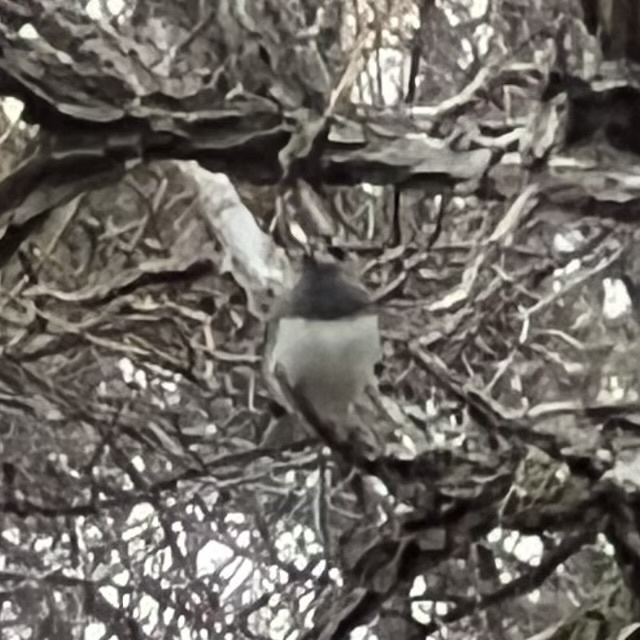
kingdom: Animalia
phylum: Chordata
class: Aves
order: Passeriformes
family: Passerellidae
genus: Junco
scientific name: Junco hyemalis
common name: Dark-eyed junco
